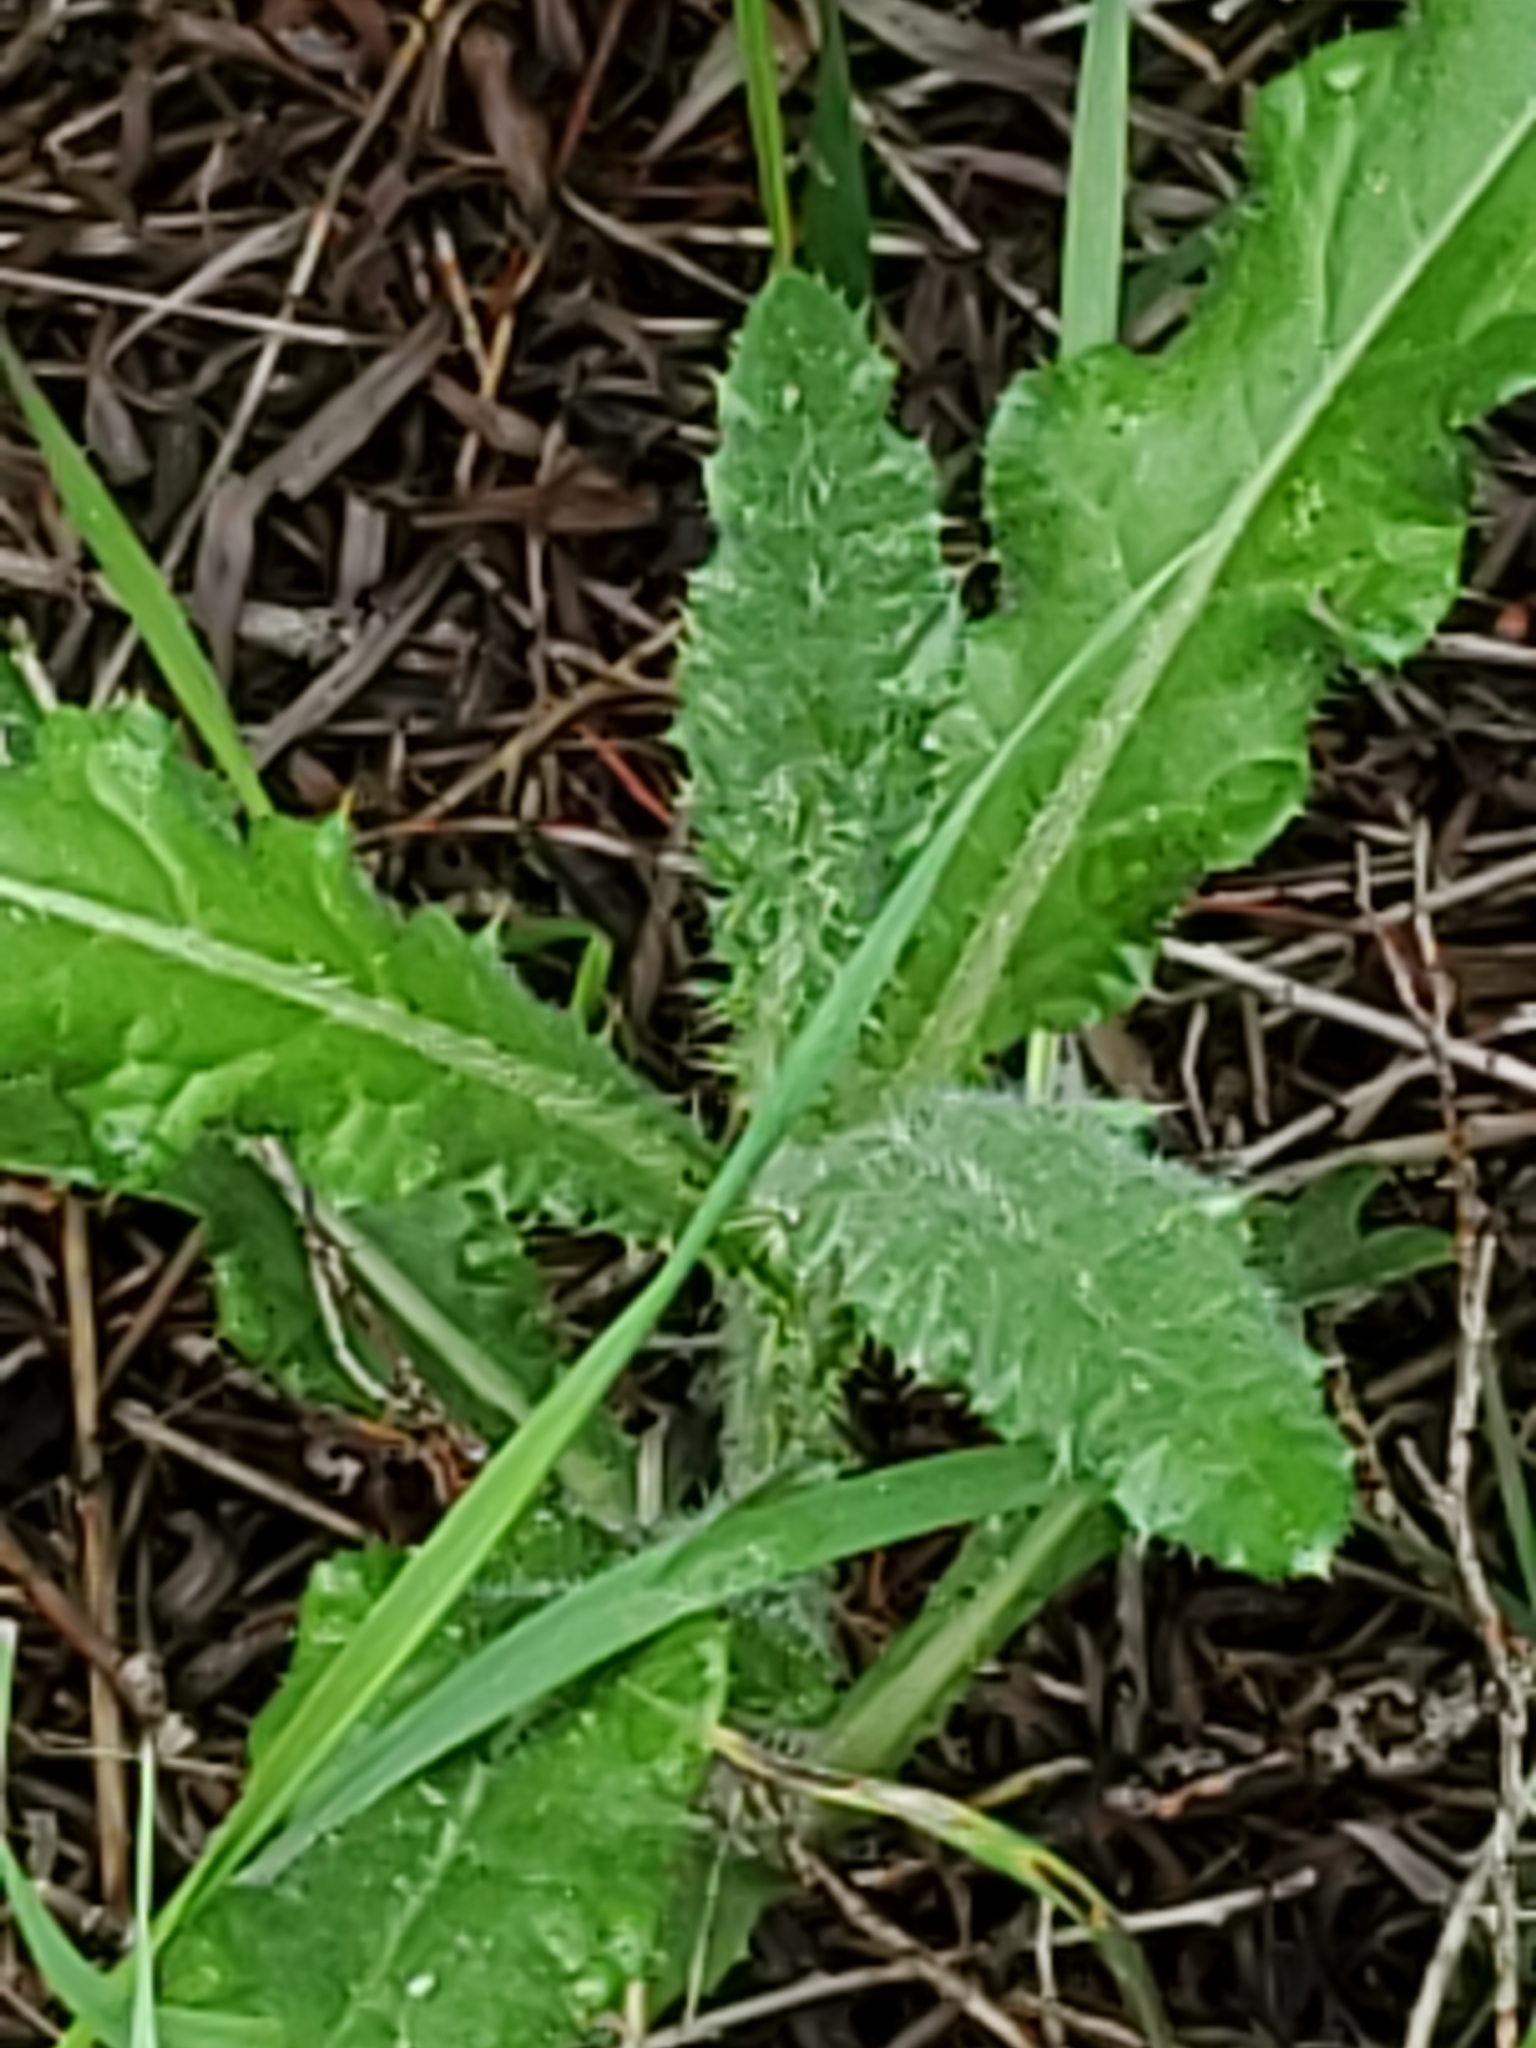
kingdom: Plantae
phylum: Tracheophyta
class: Magnoliopsida
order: Asterales
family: Asteraceae
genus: Cirsium
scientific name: Cirsium arvense
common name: Creeping thistle
